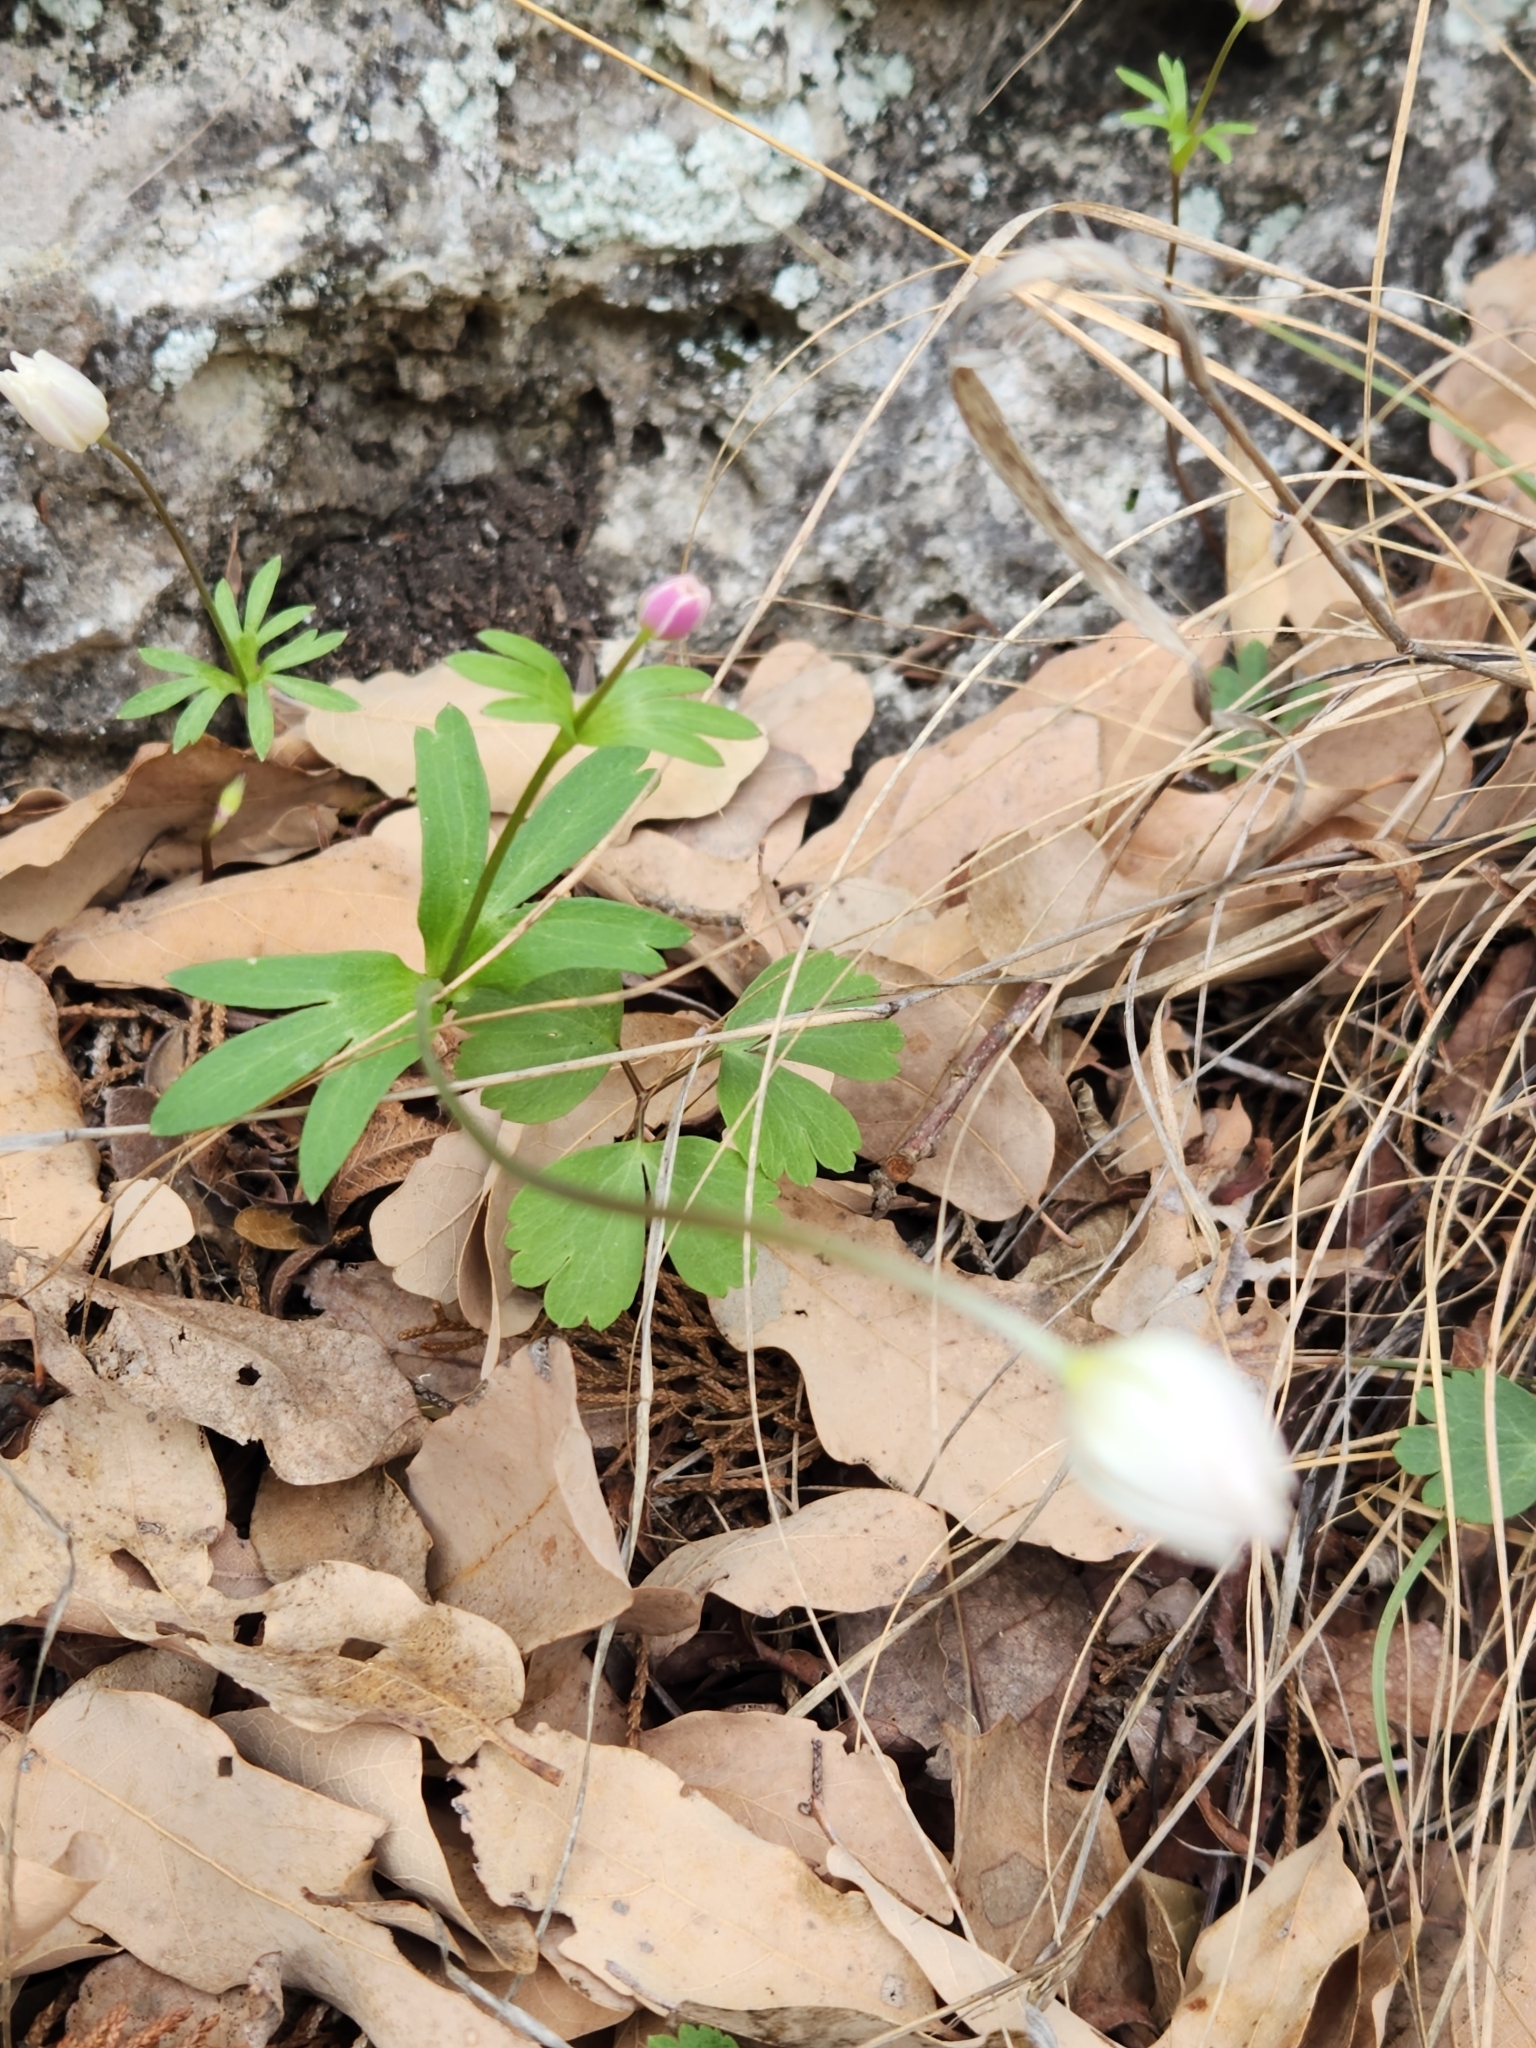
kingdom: Plantae
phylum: Tracheophyta
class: Magnoliopsida
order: Ranunculales
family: Ranunculaceae
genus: Anemone
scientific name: Anemone edwardsiana
